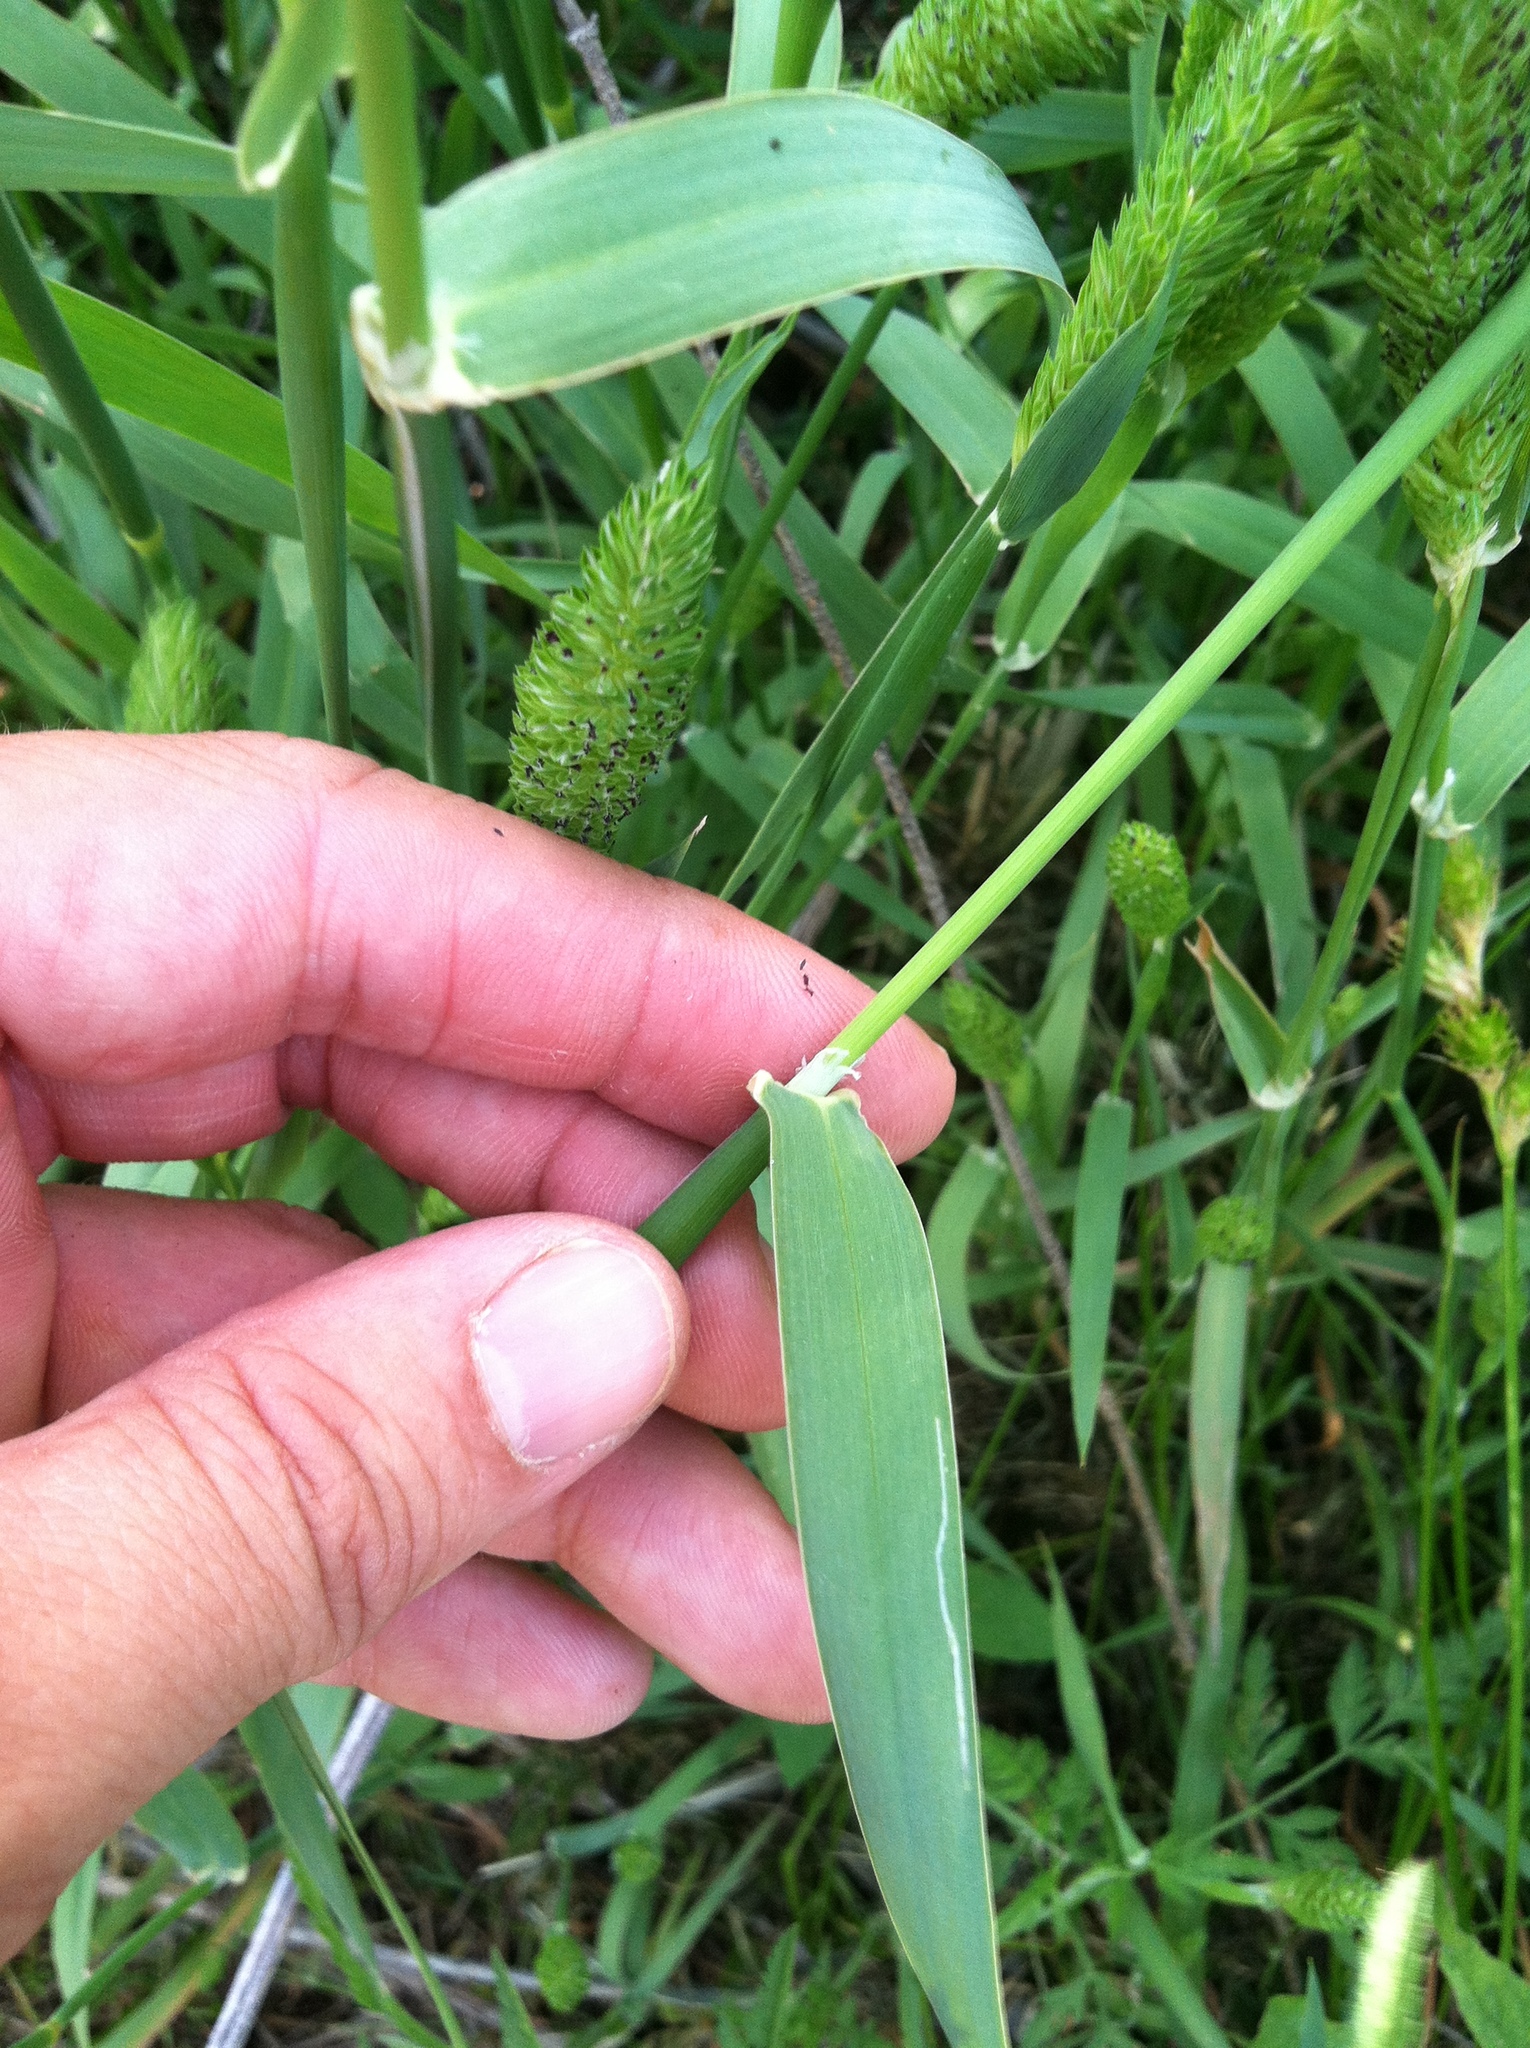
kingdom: Plantae
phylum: Tracheophyta
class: Liliopsida
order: Poales
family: Poaceae
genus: Phalaris
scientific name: Phalaris caroliniana
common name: May grass
